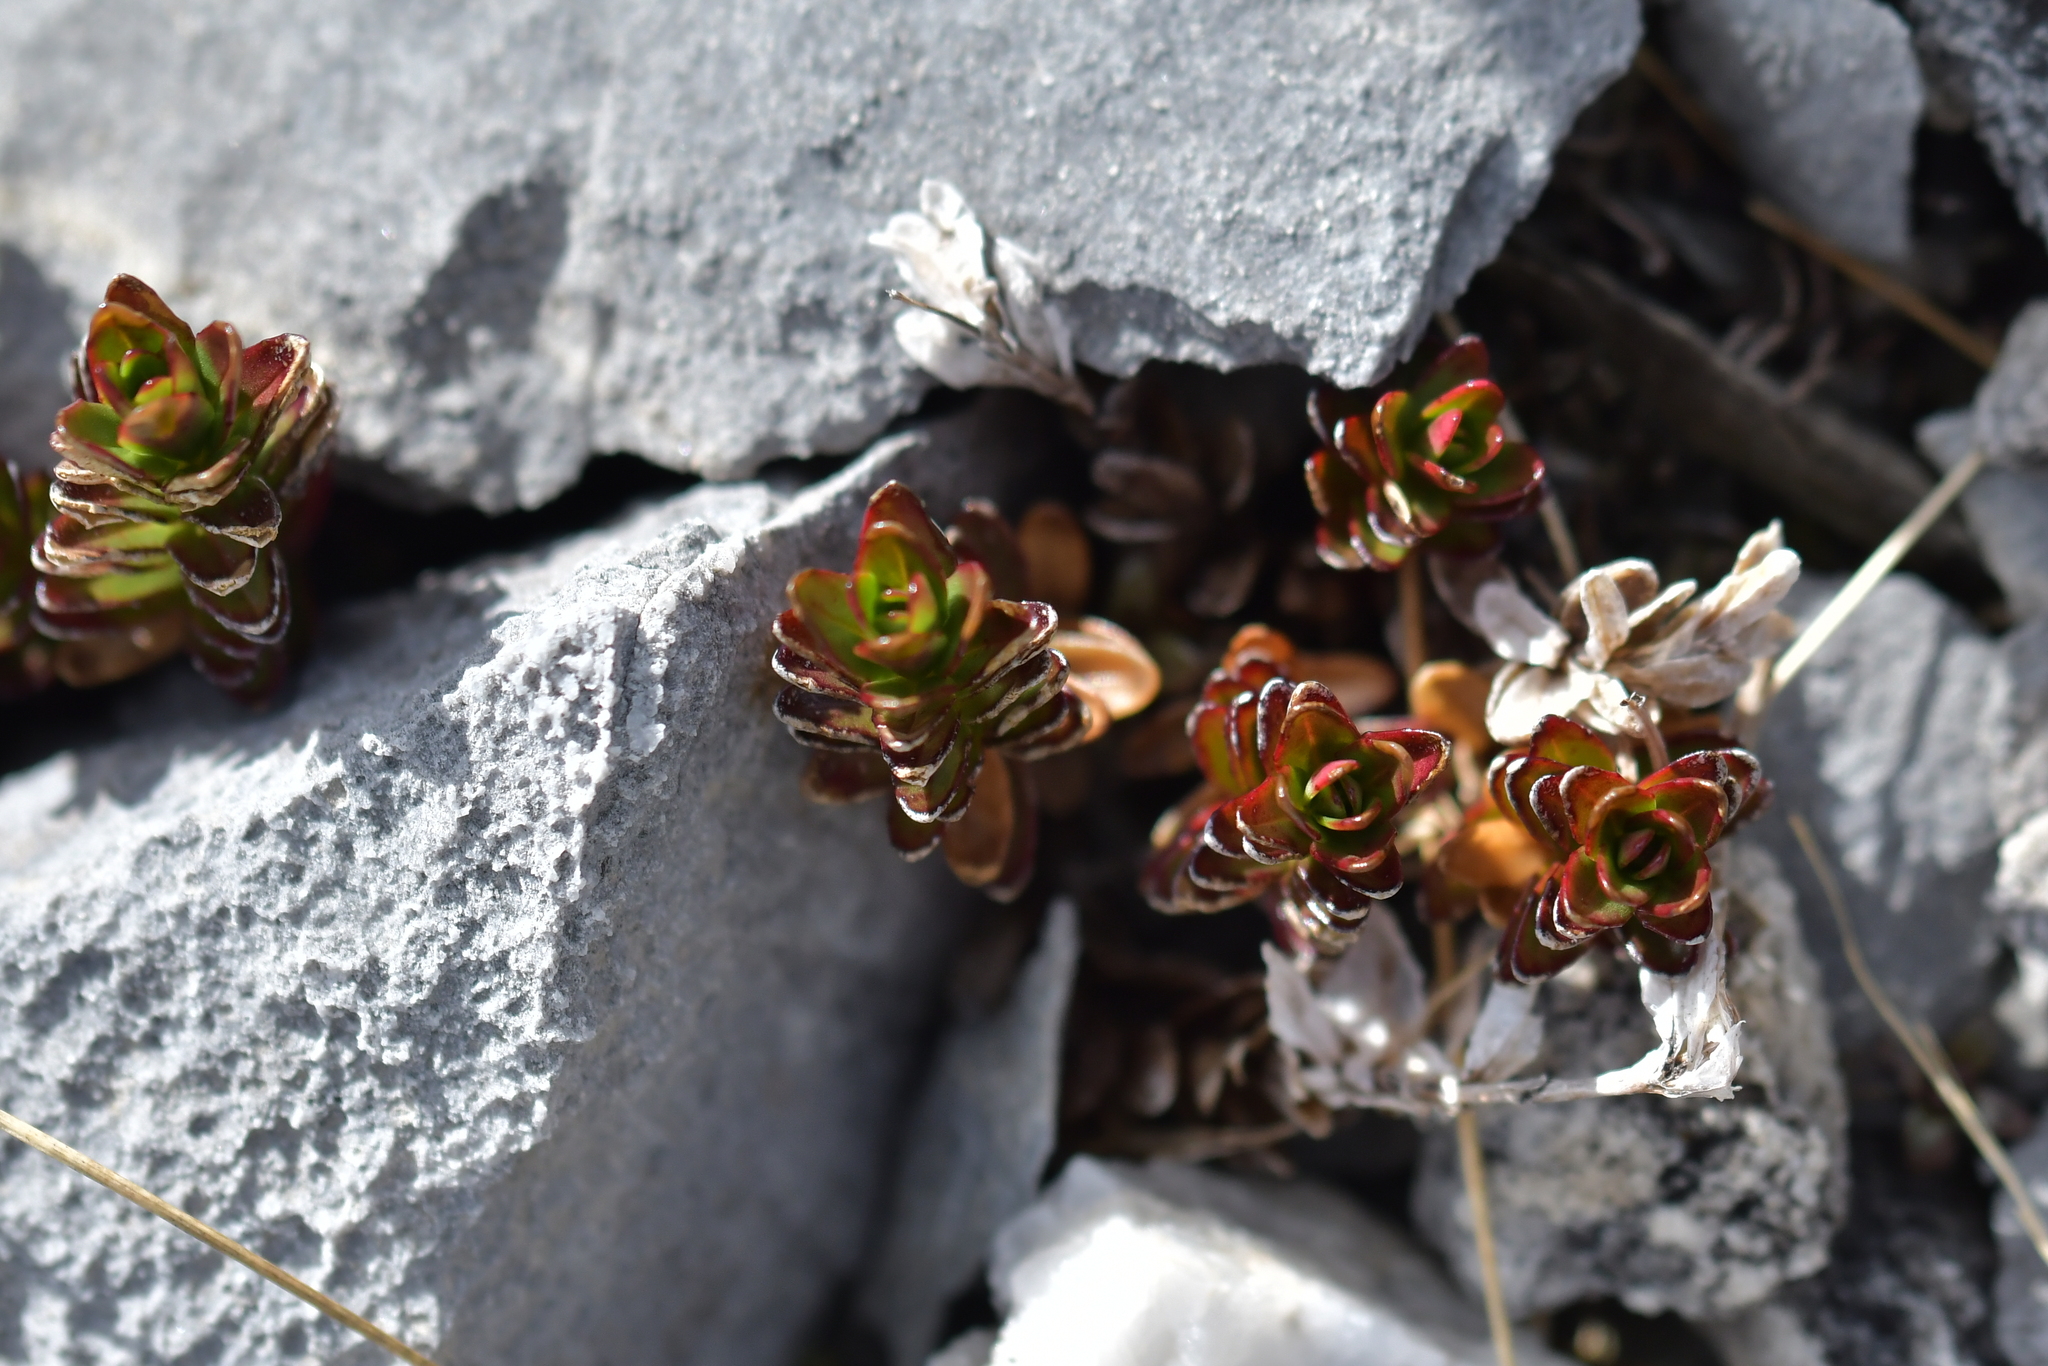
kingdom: Plantae
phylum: Tracheophyta
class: Magnoliopsida
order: Myrtales
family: Onagraceae
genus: Epilobium
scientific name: Epilobium glabellum
